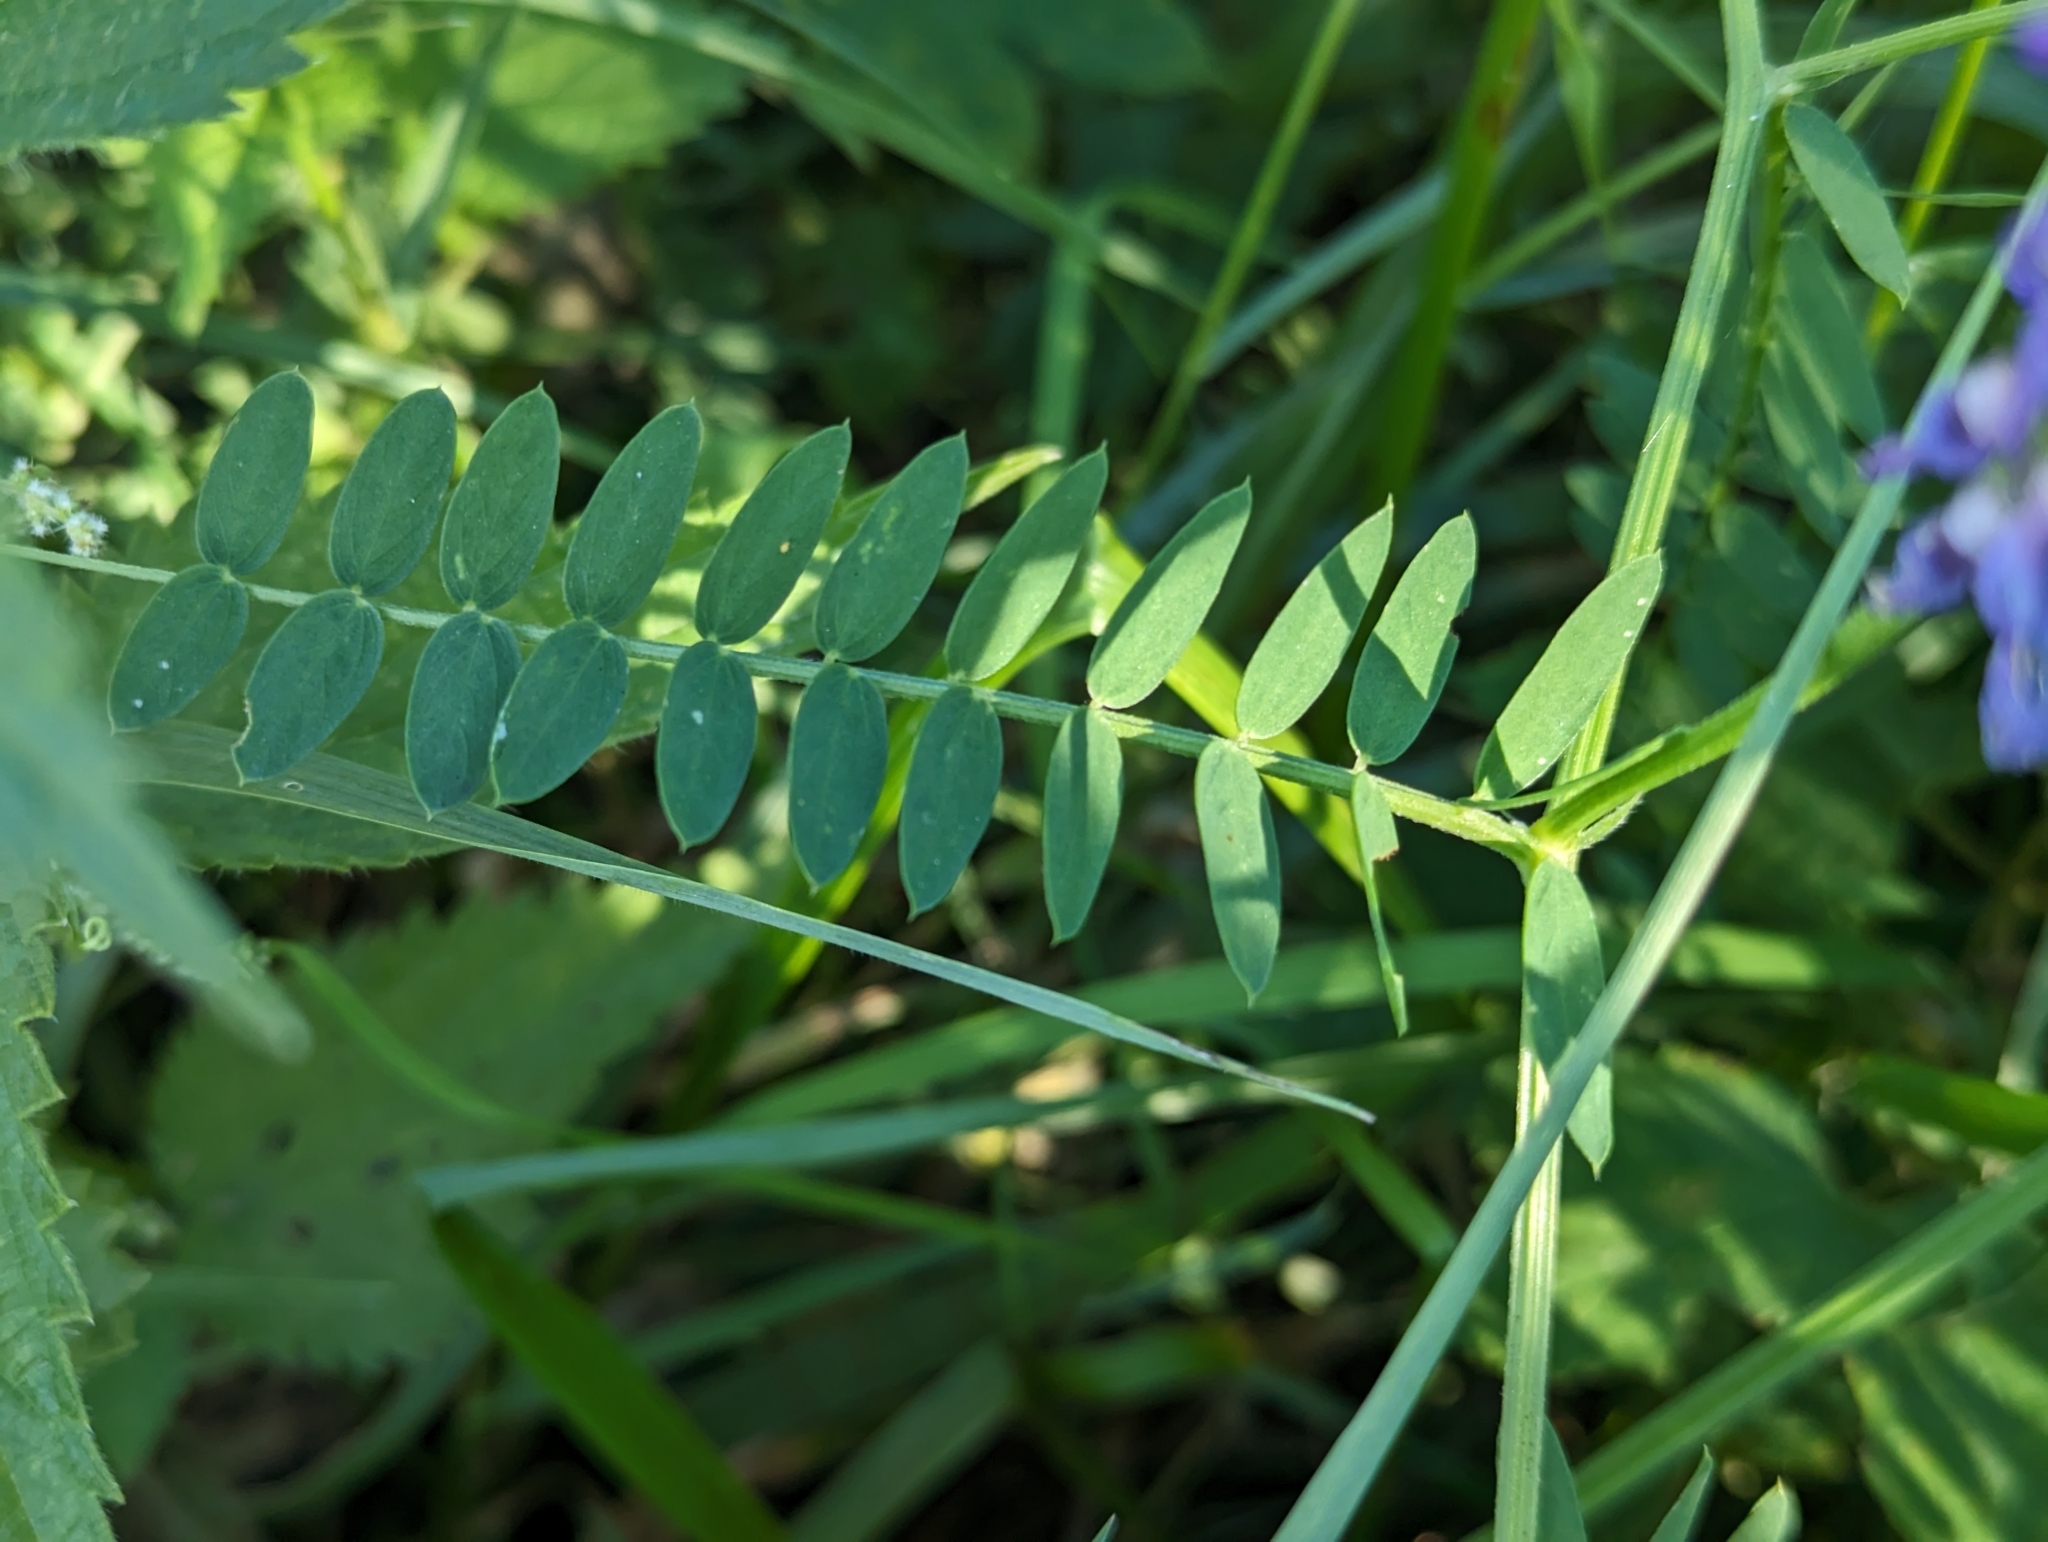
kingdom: Plantae
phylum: Tracheophyta
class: Magnoliopsida
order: Fabales
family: Fabaceae
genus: Vicia
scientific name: Vicia cracca
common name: Bird vetch
